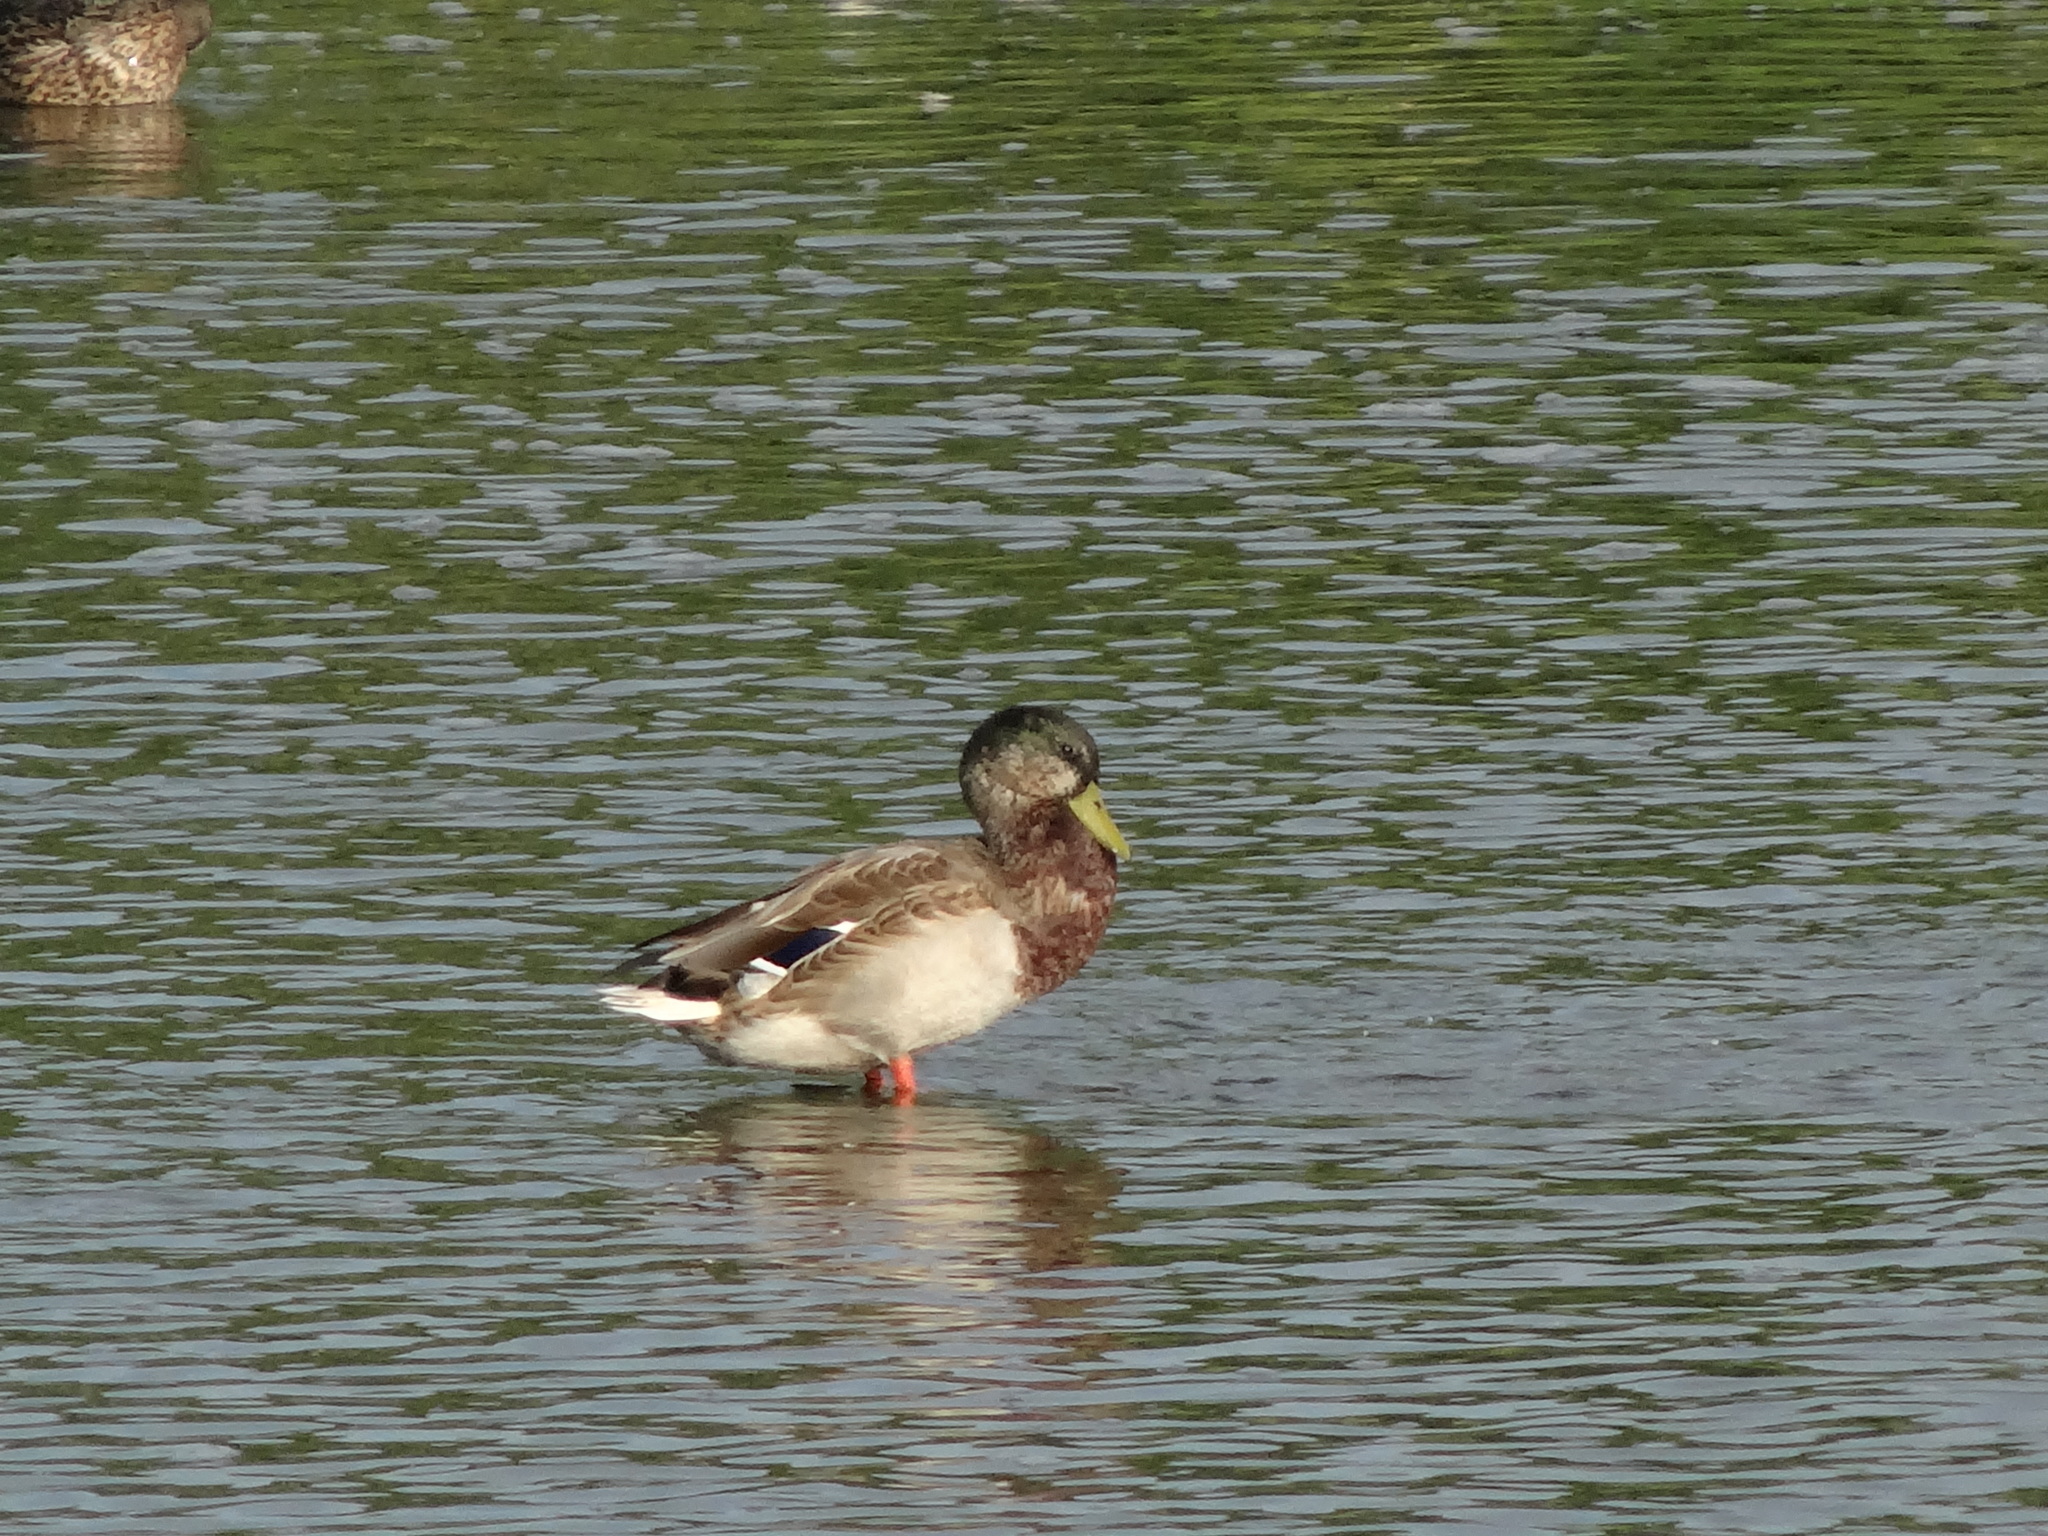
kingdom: Animalia
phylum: Chordata
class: Aves
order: Anseriformes
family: Anatidae
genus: Anas
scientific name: Anas platyrhynchos
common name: Mallard
